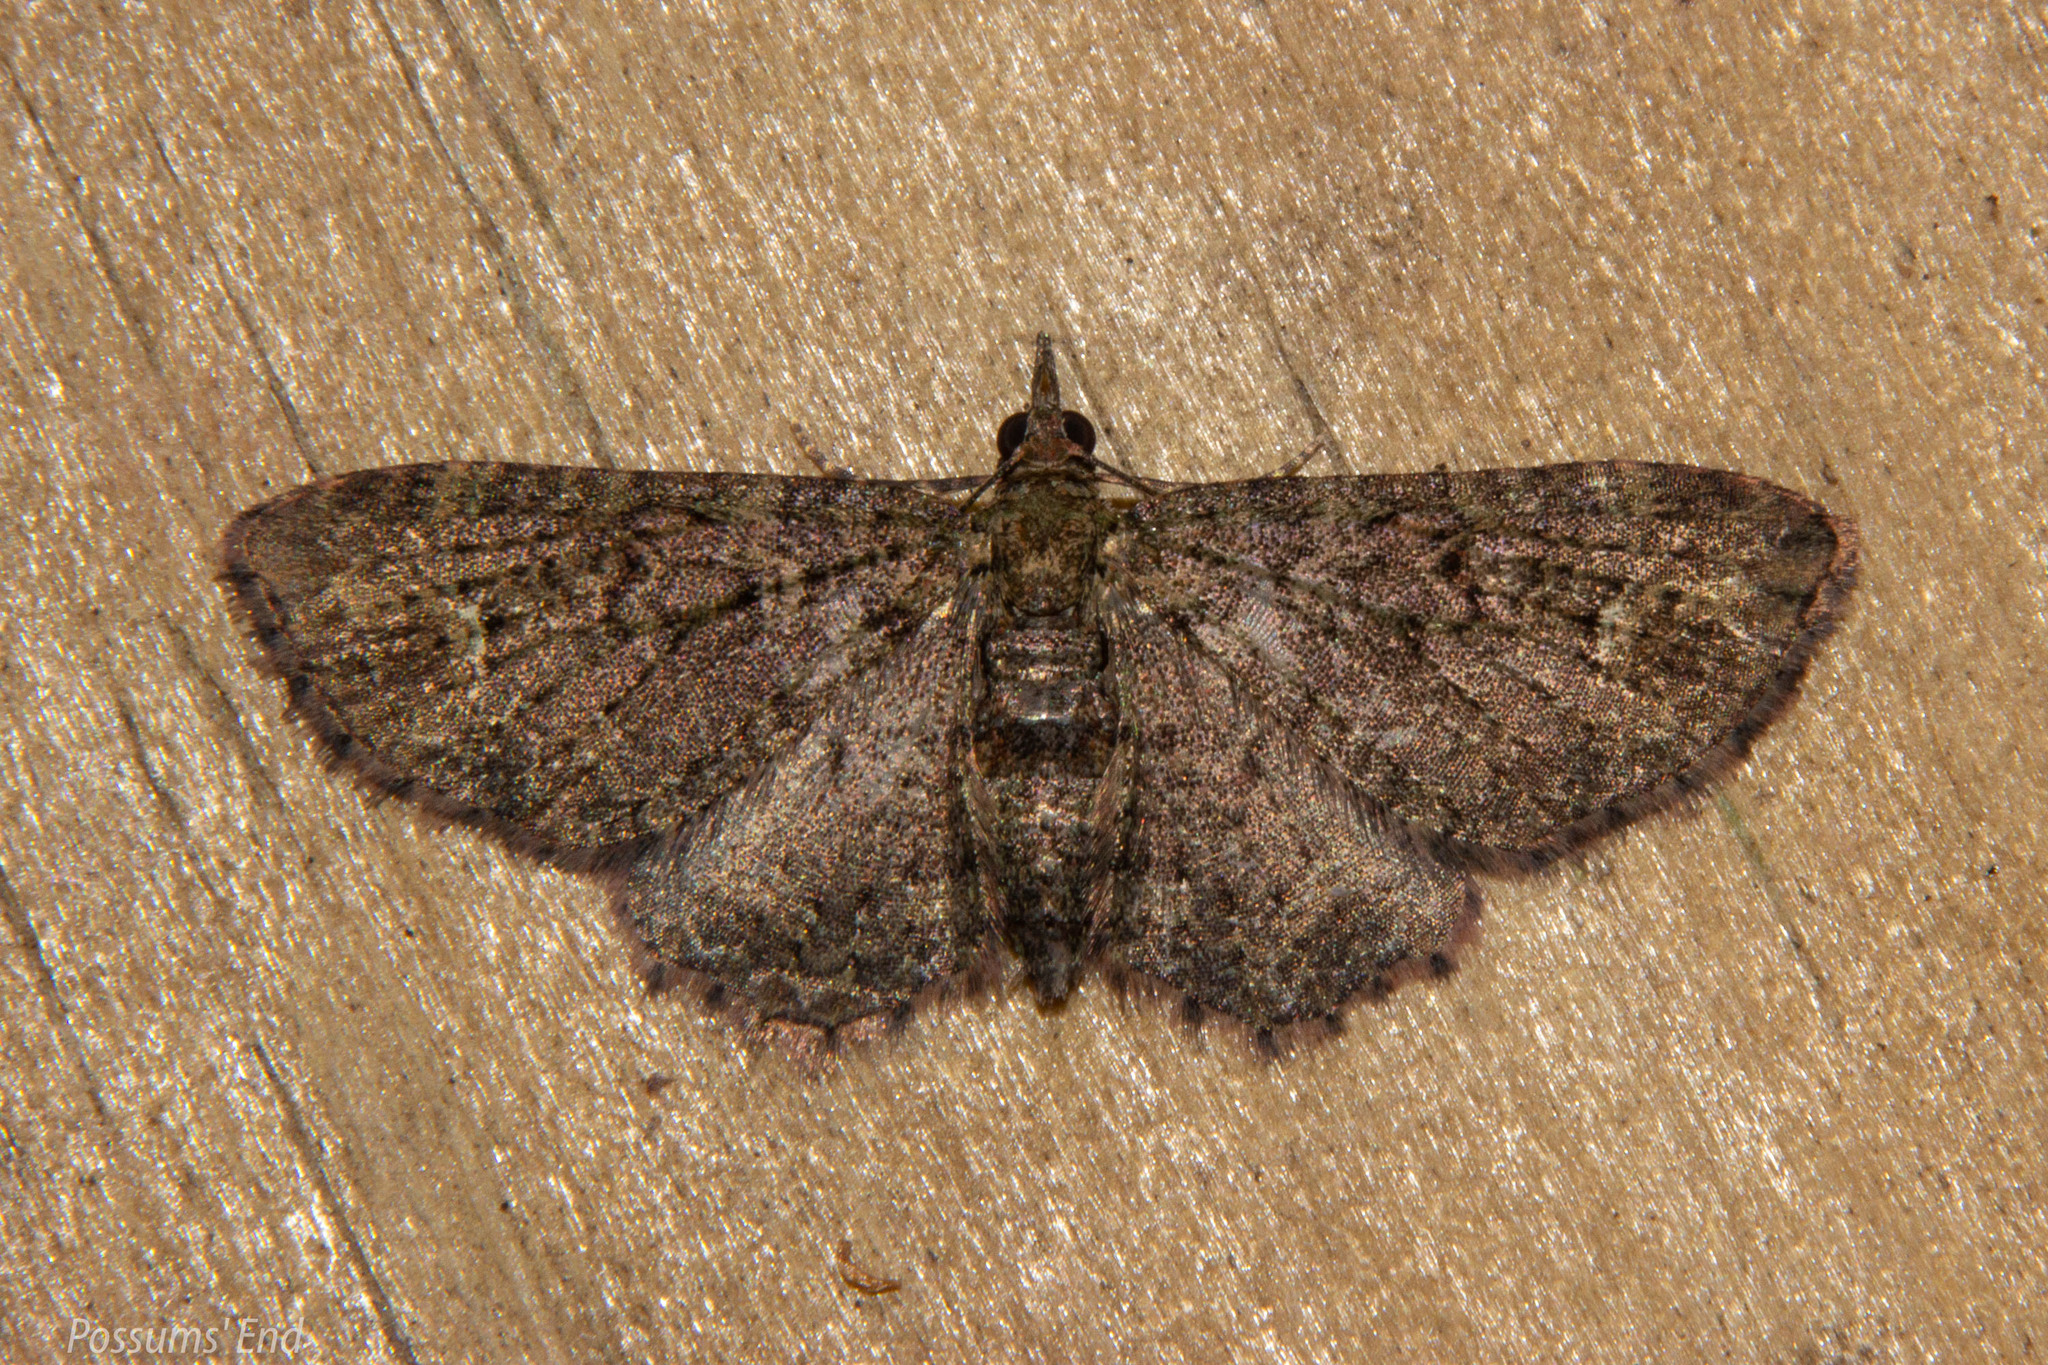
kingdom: Animalia
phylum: Arthropoda
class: Insecta
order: Lepidoptera
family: Geometridae
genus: Pasiphilodes
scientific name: Pasiphilodes testulata
